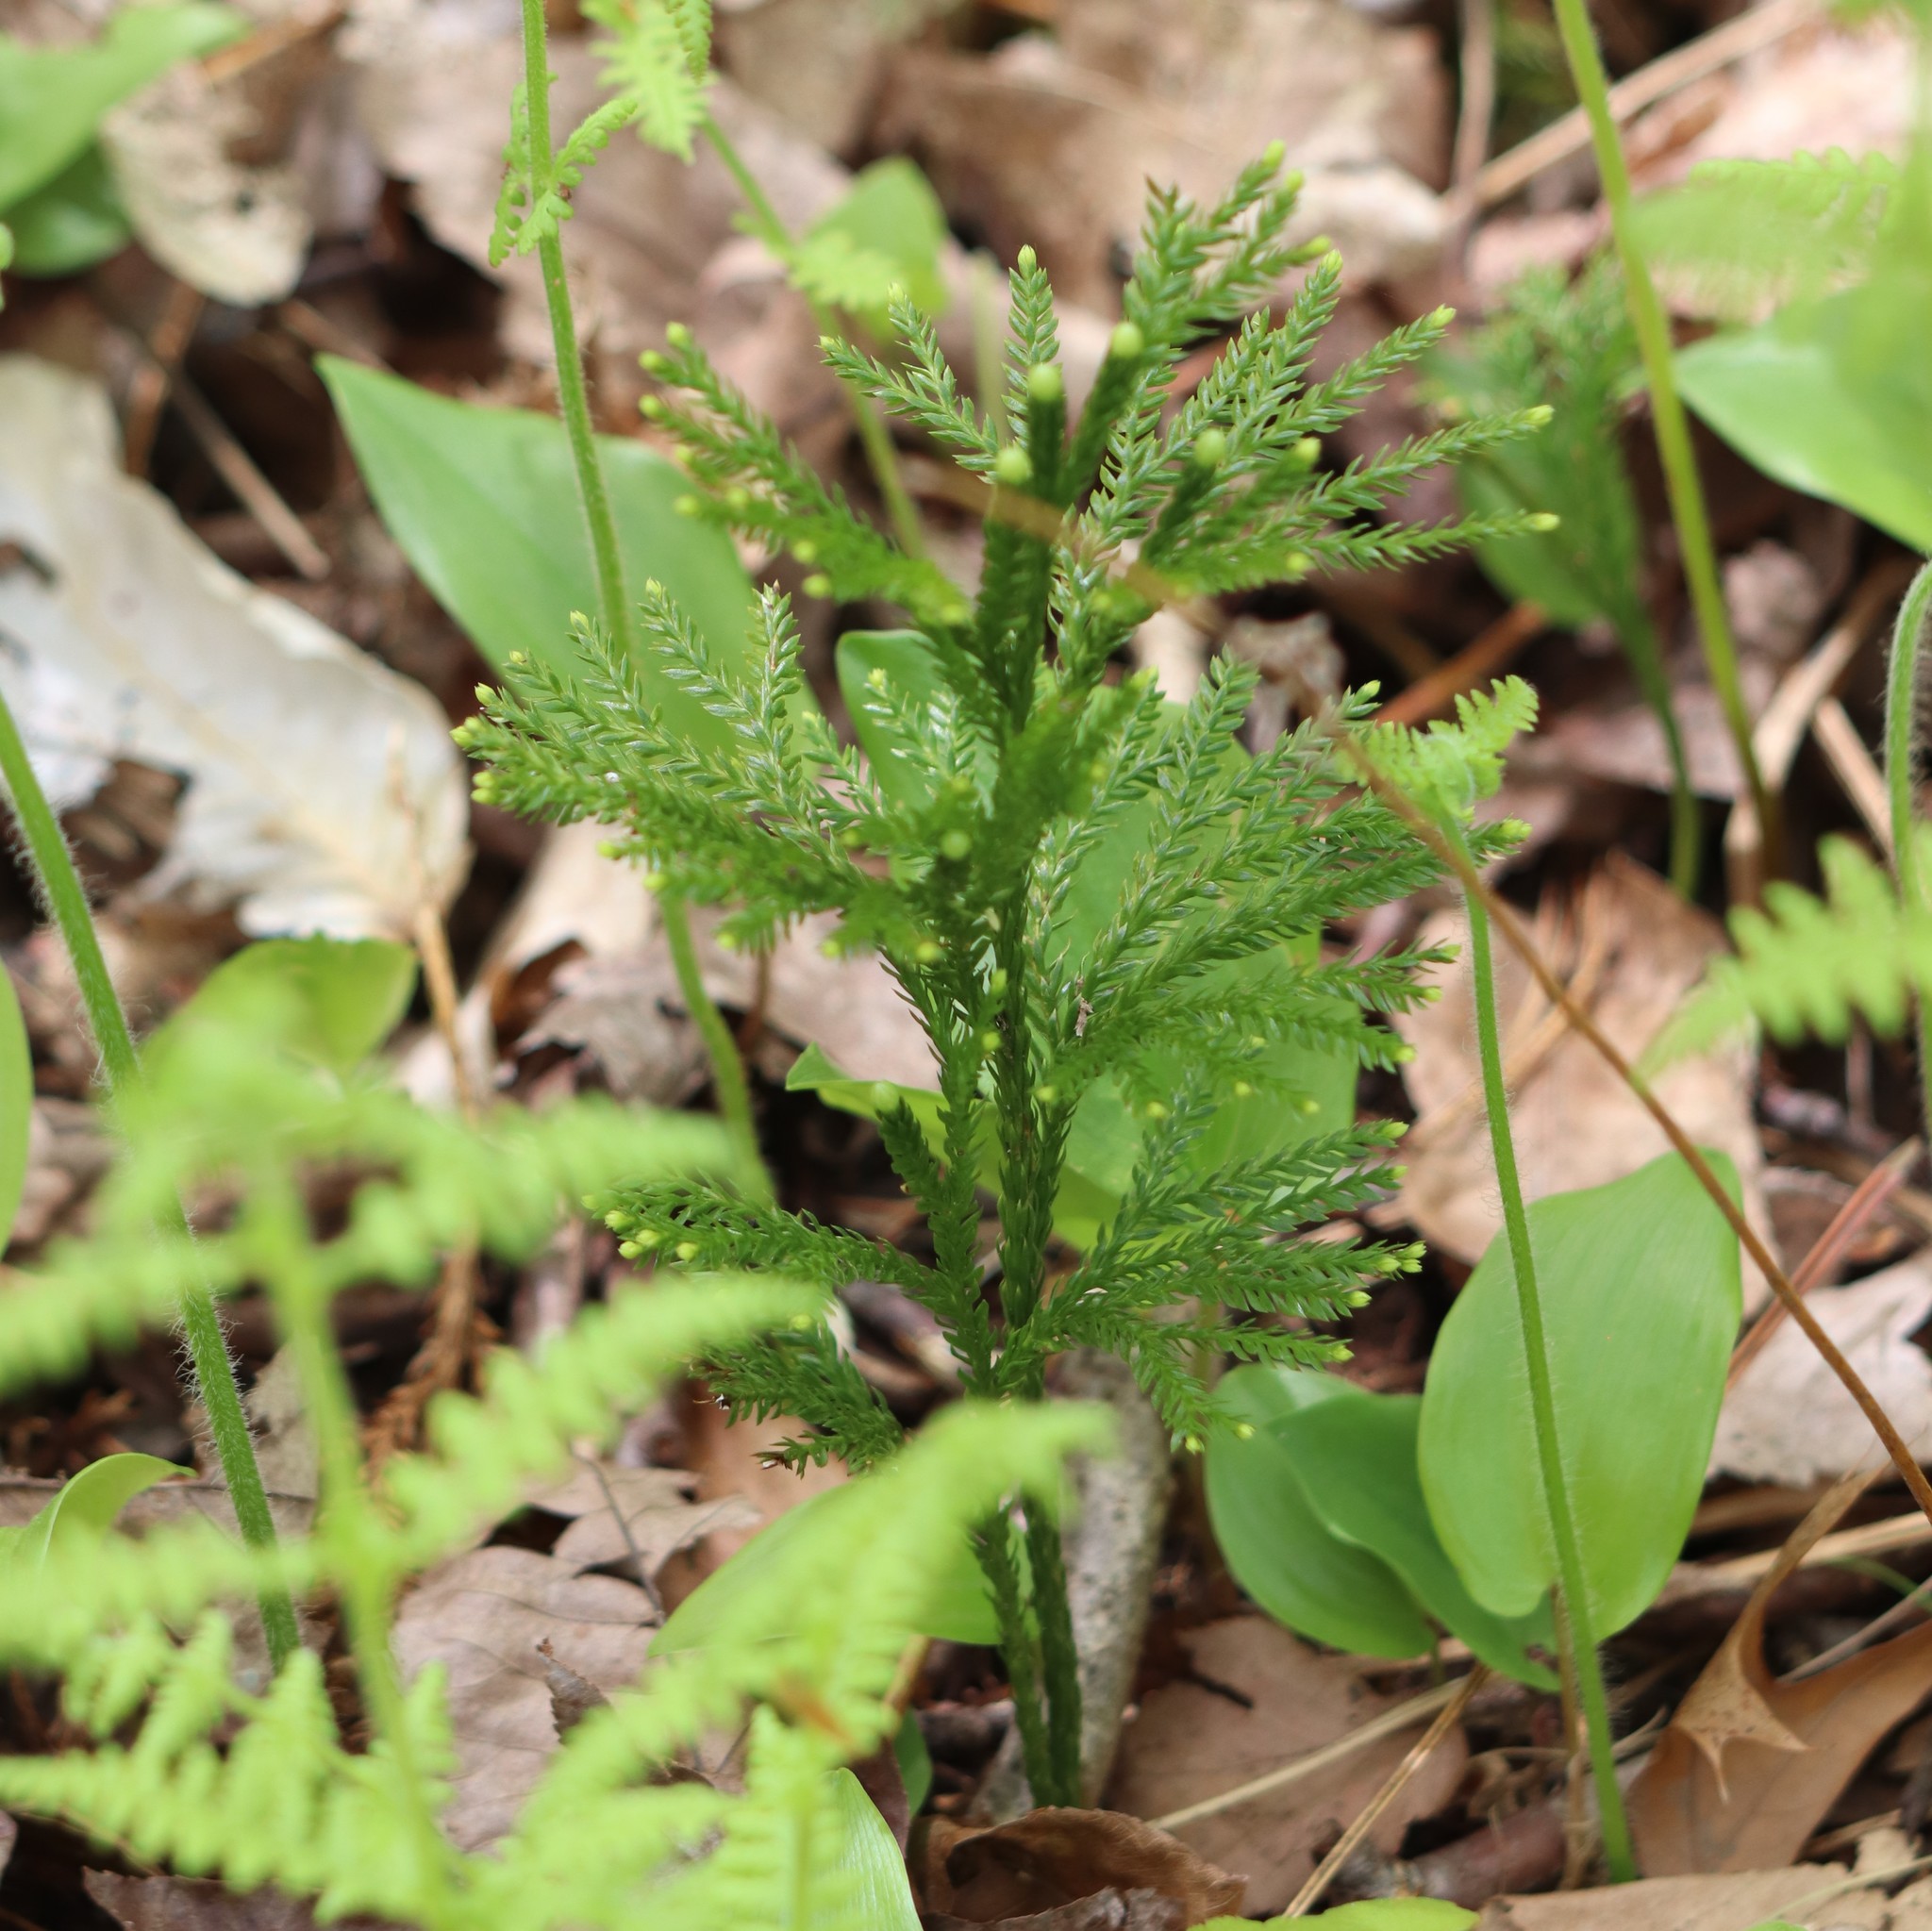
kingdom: Plantae
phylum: Tracheophyta
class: Lycopodiopsida
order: Lycopodiales
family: Lycopodiaceae
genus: Dendrolycopodium
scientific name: Dendrolycopodium obscurum
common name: Common ground-pine
